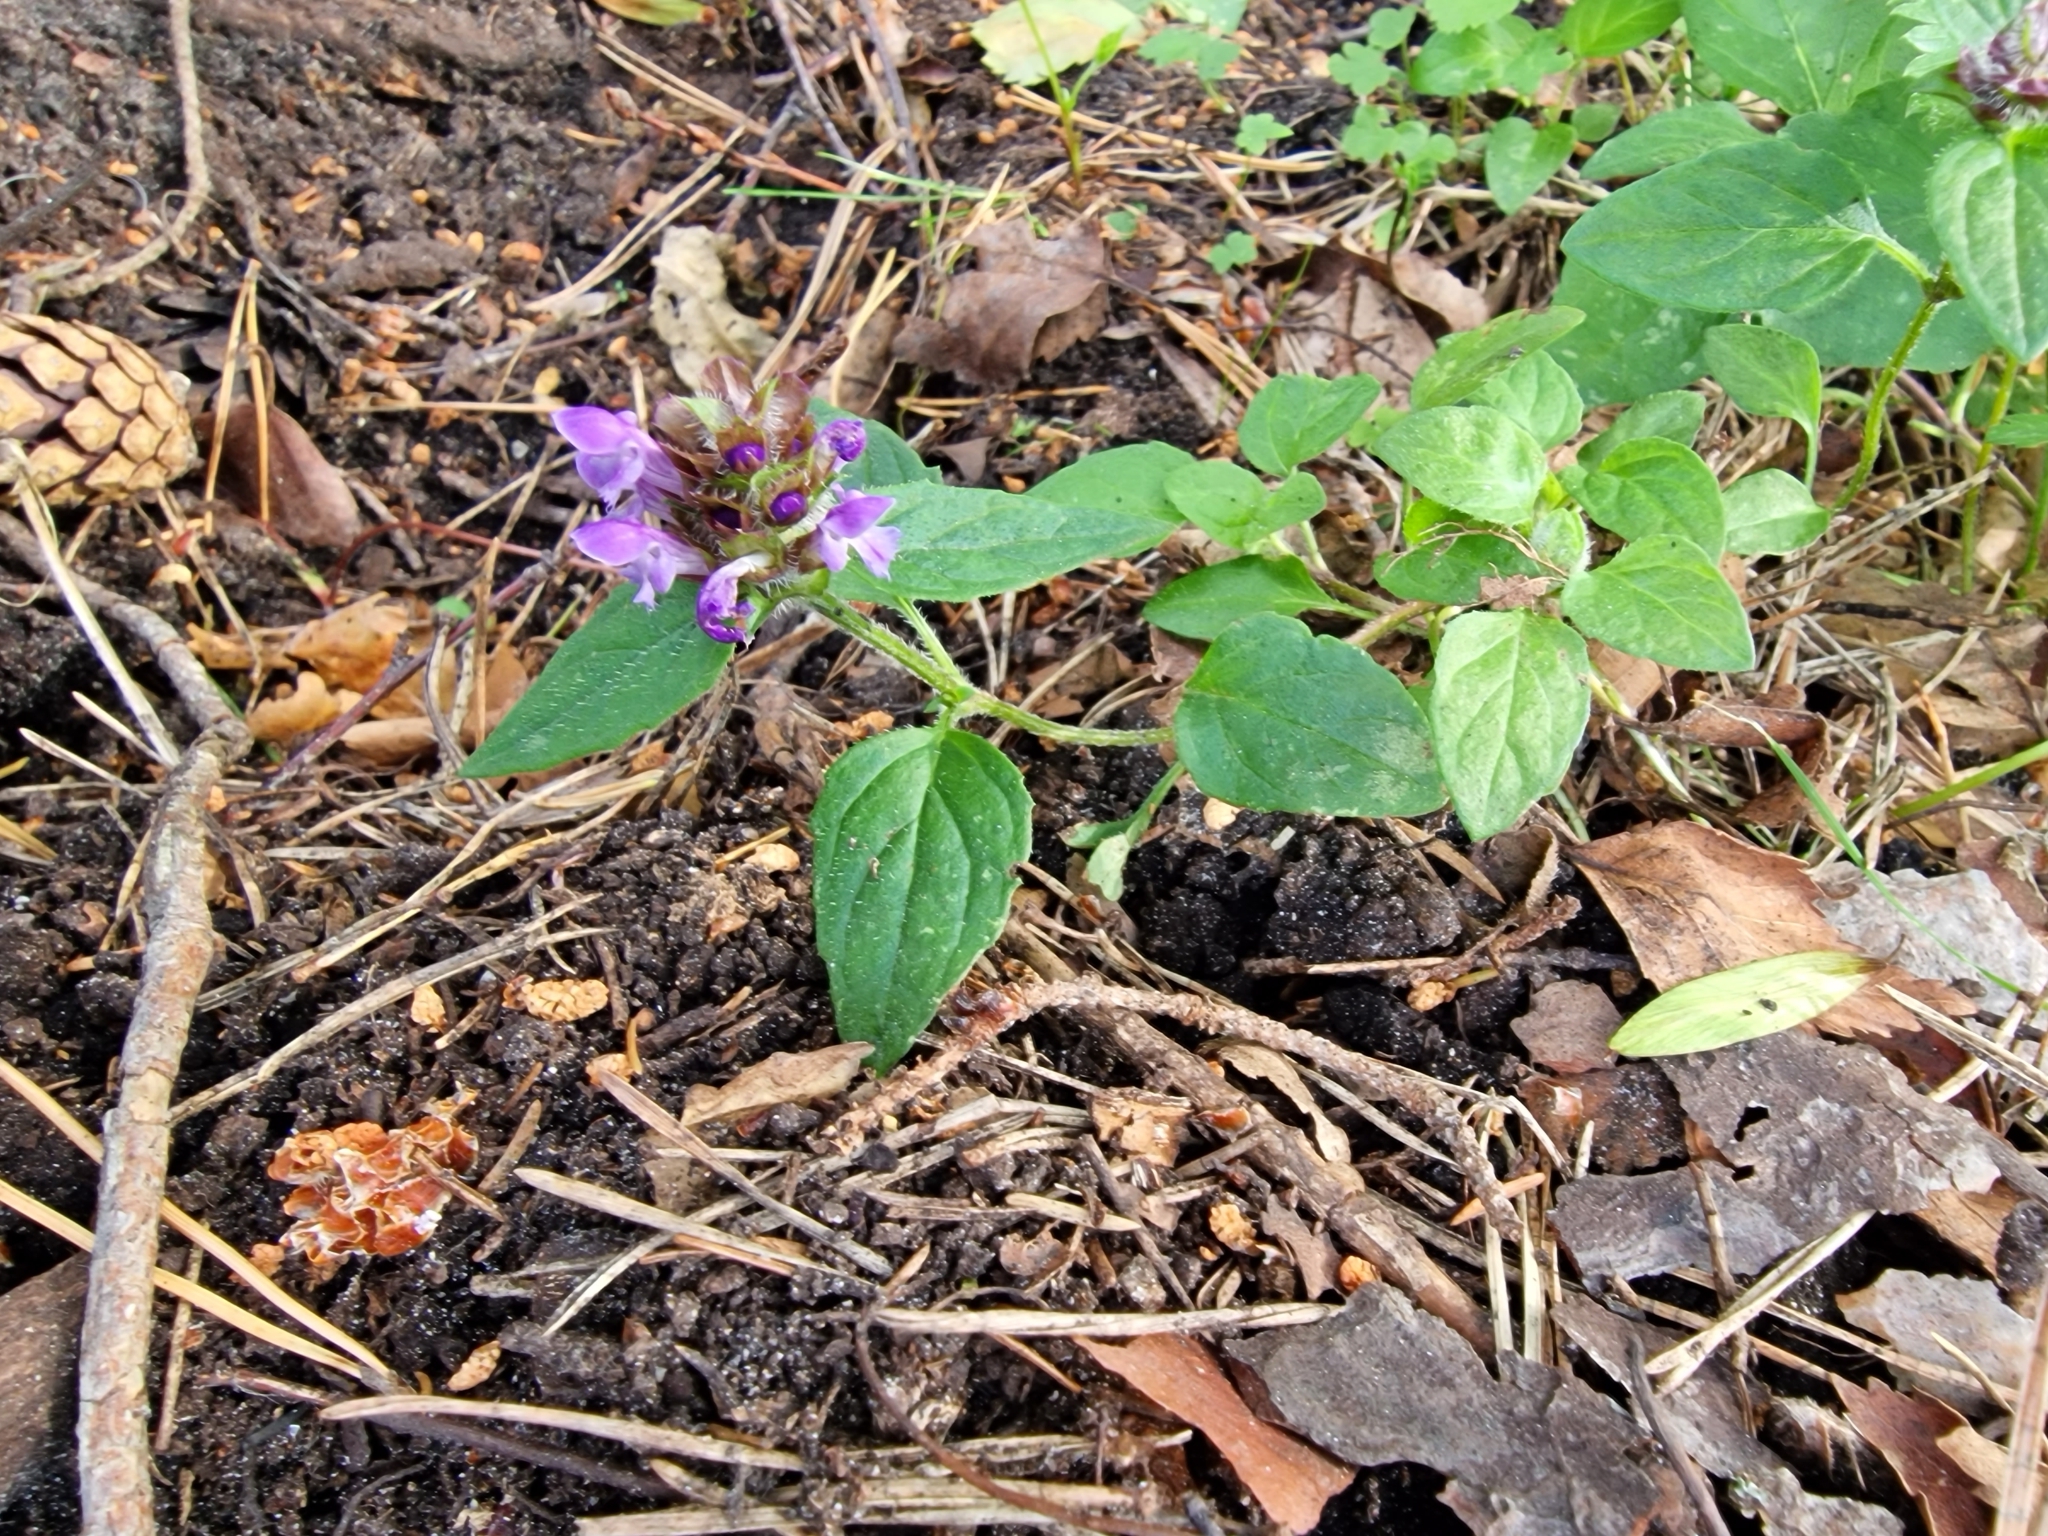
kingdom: Plantae
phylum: Tracheophyta
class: Magnoliopsida
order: Lamiales
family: Lamiaceae
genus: Prunella
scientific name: Prunella vulgaris
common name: Heal-all
